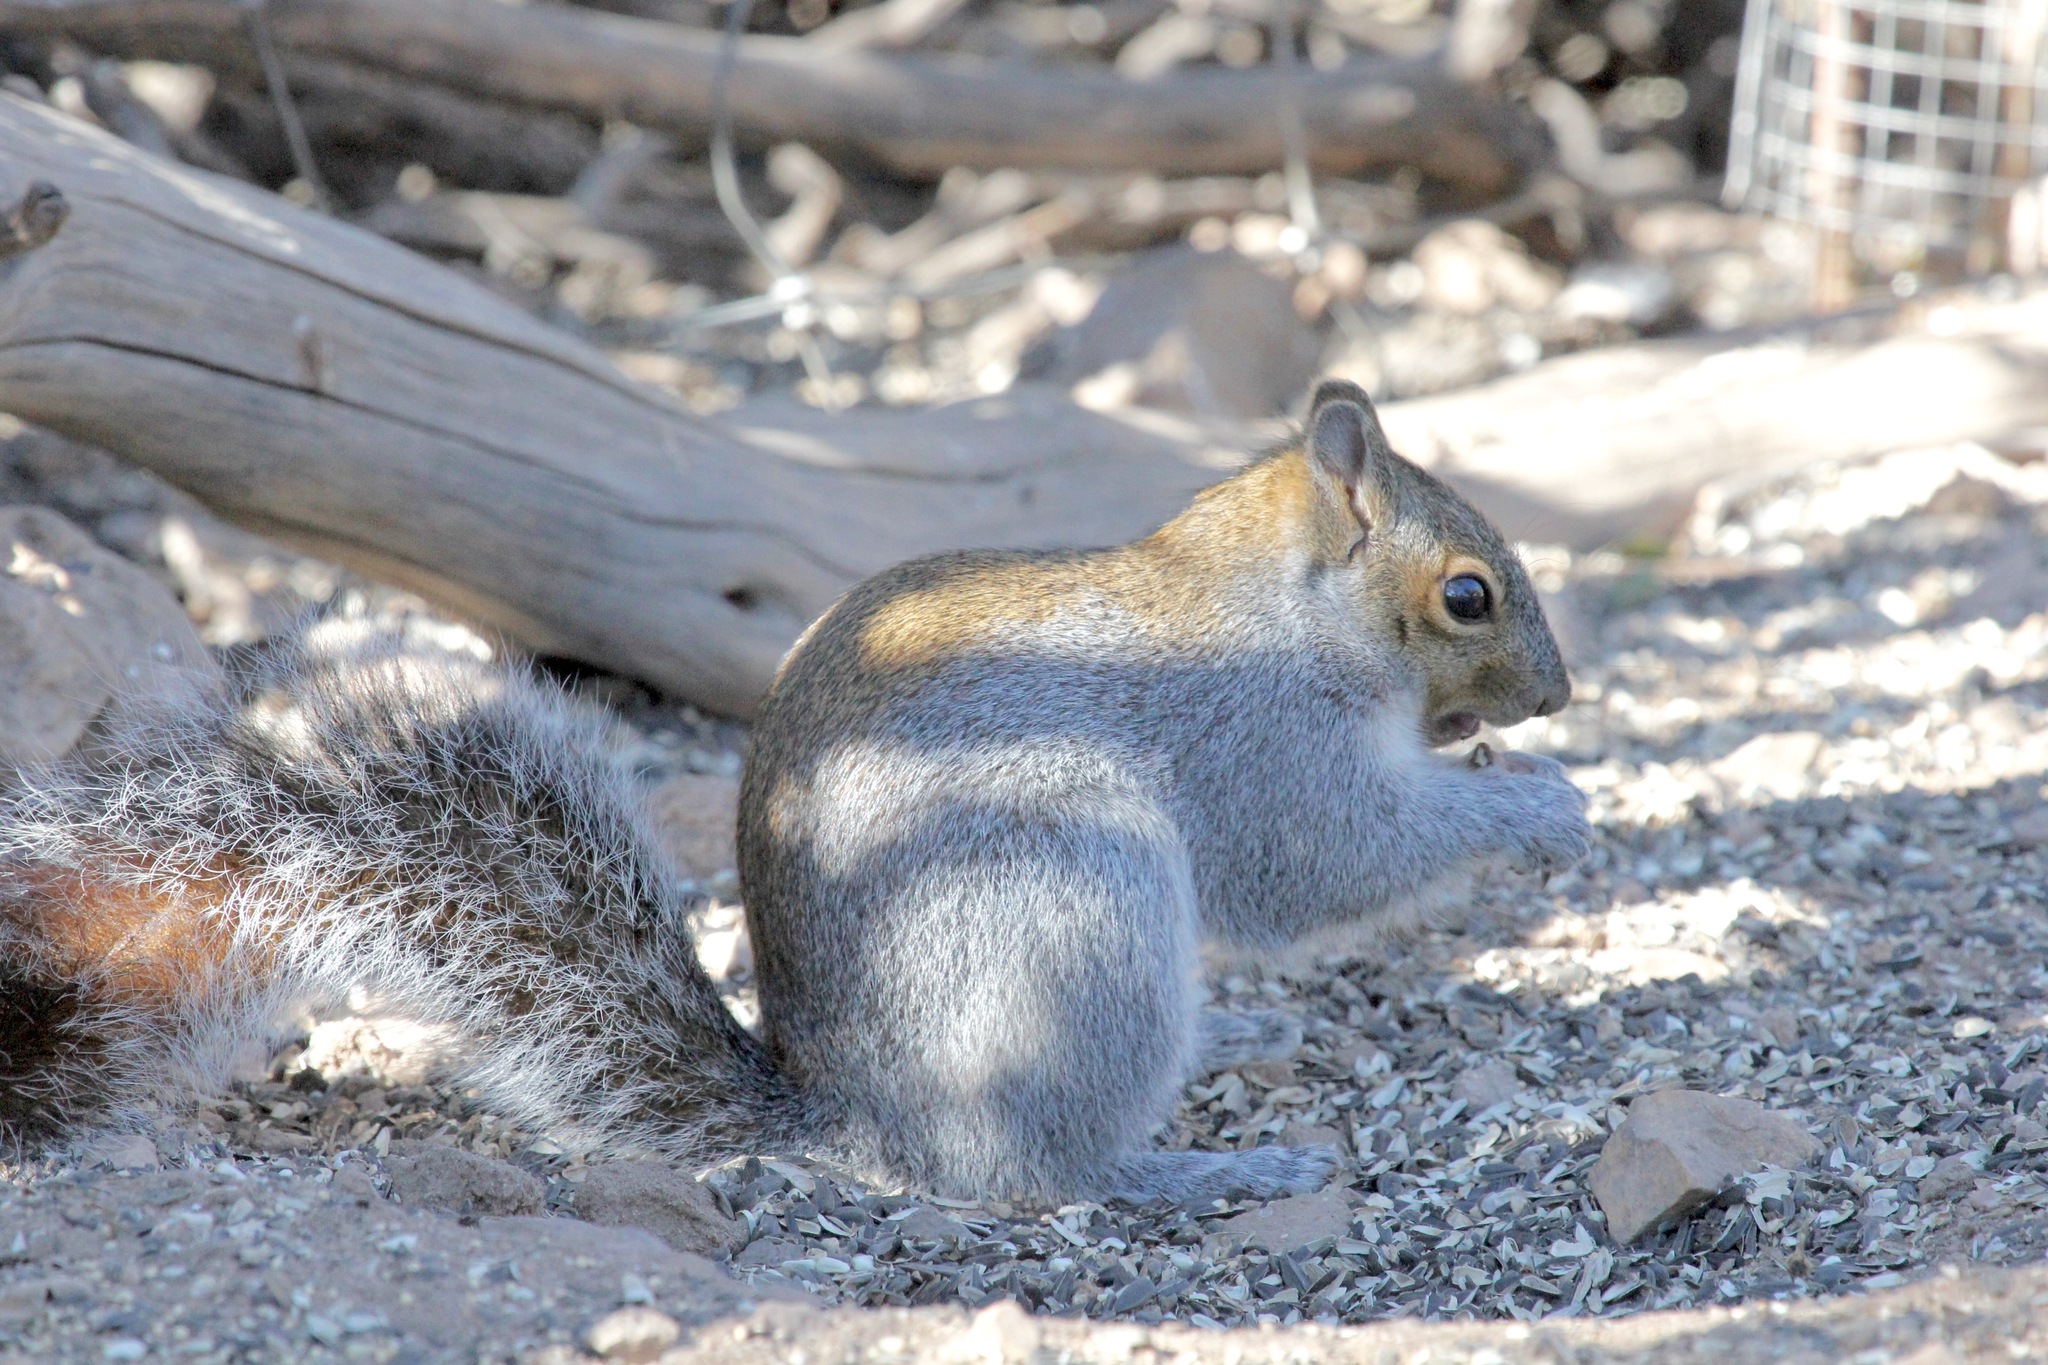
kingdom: Animalia
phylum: Chordata
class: Mammalia
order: Rodentia
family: Sciuridae
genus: Sciurus
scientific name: Sciurus arizonensis
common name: Arizona gray squirrel
